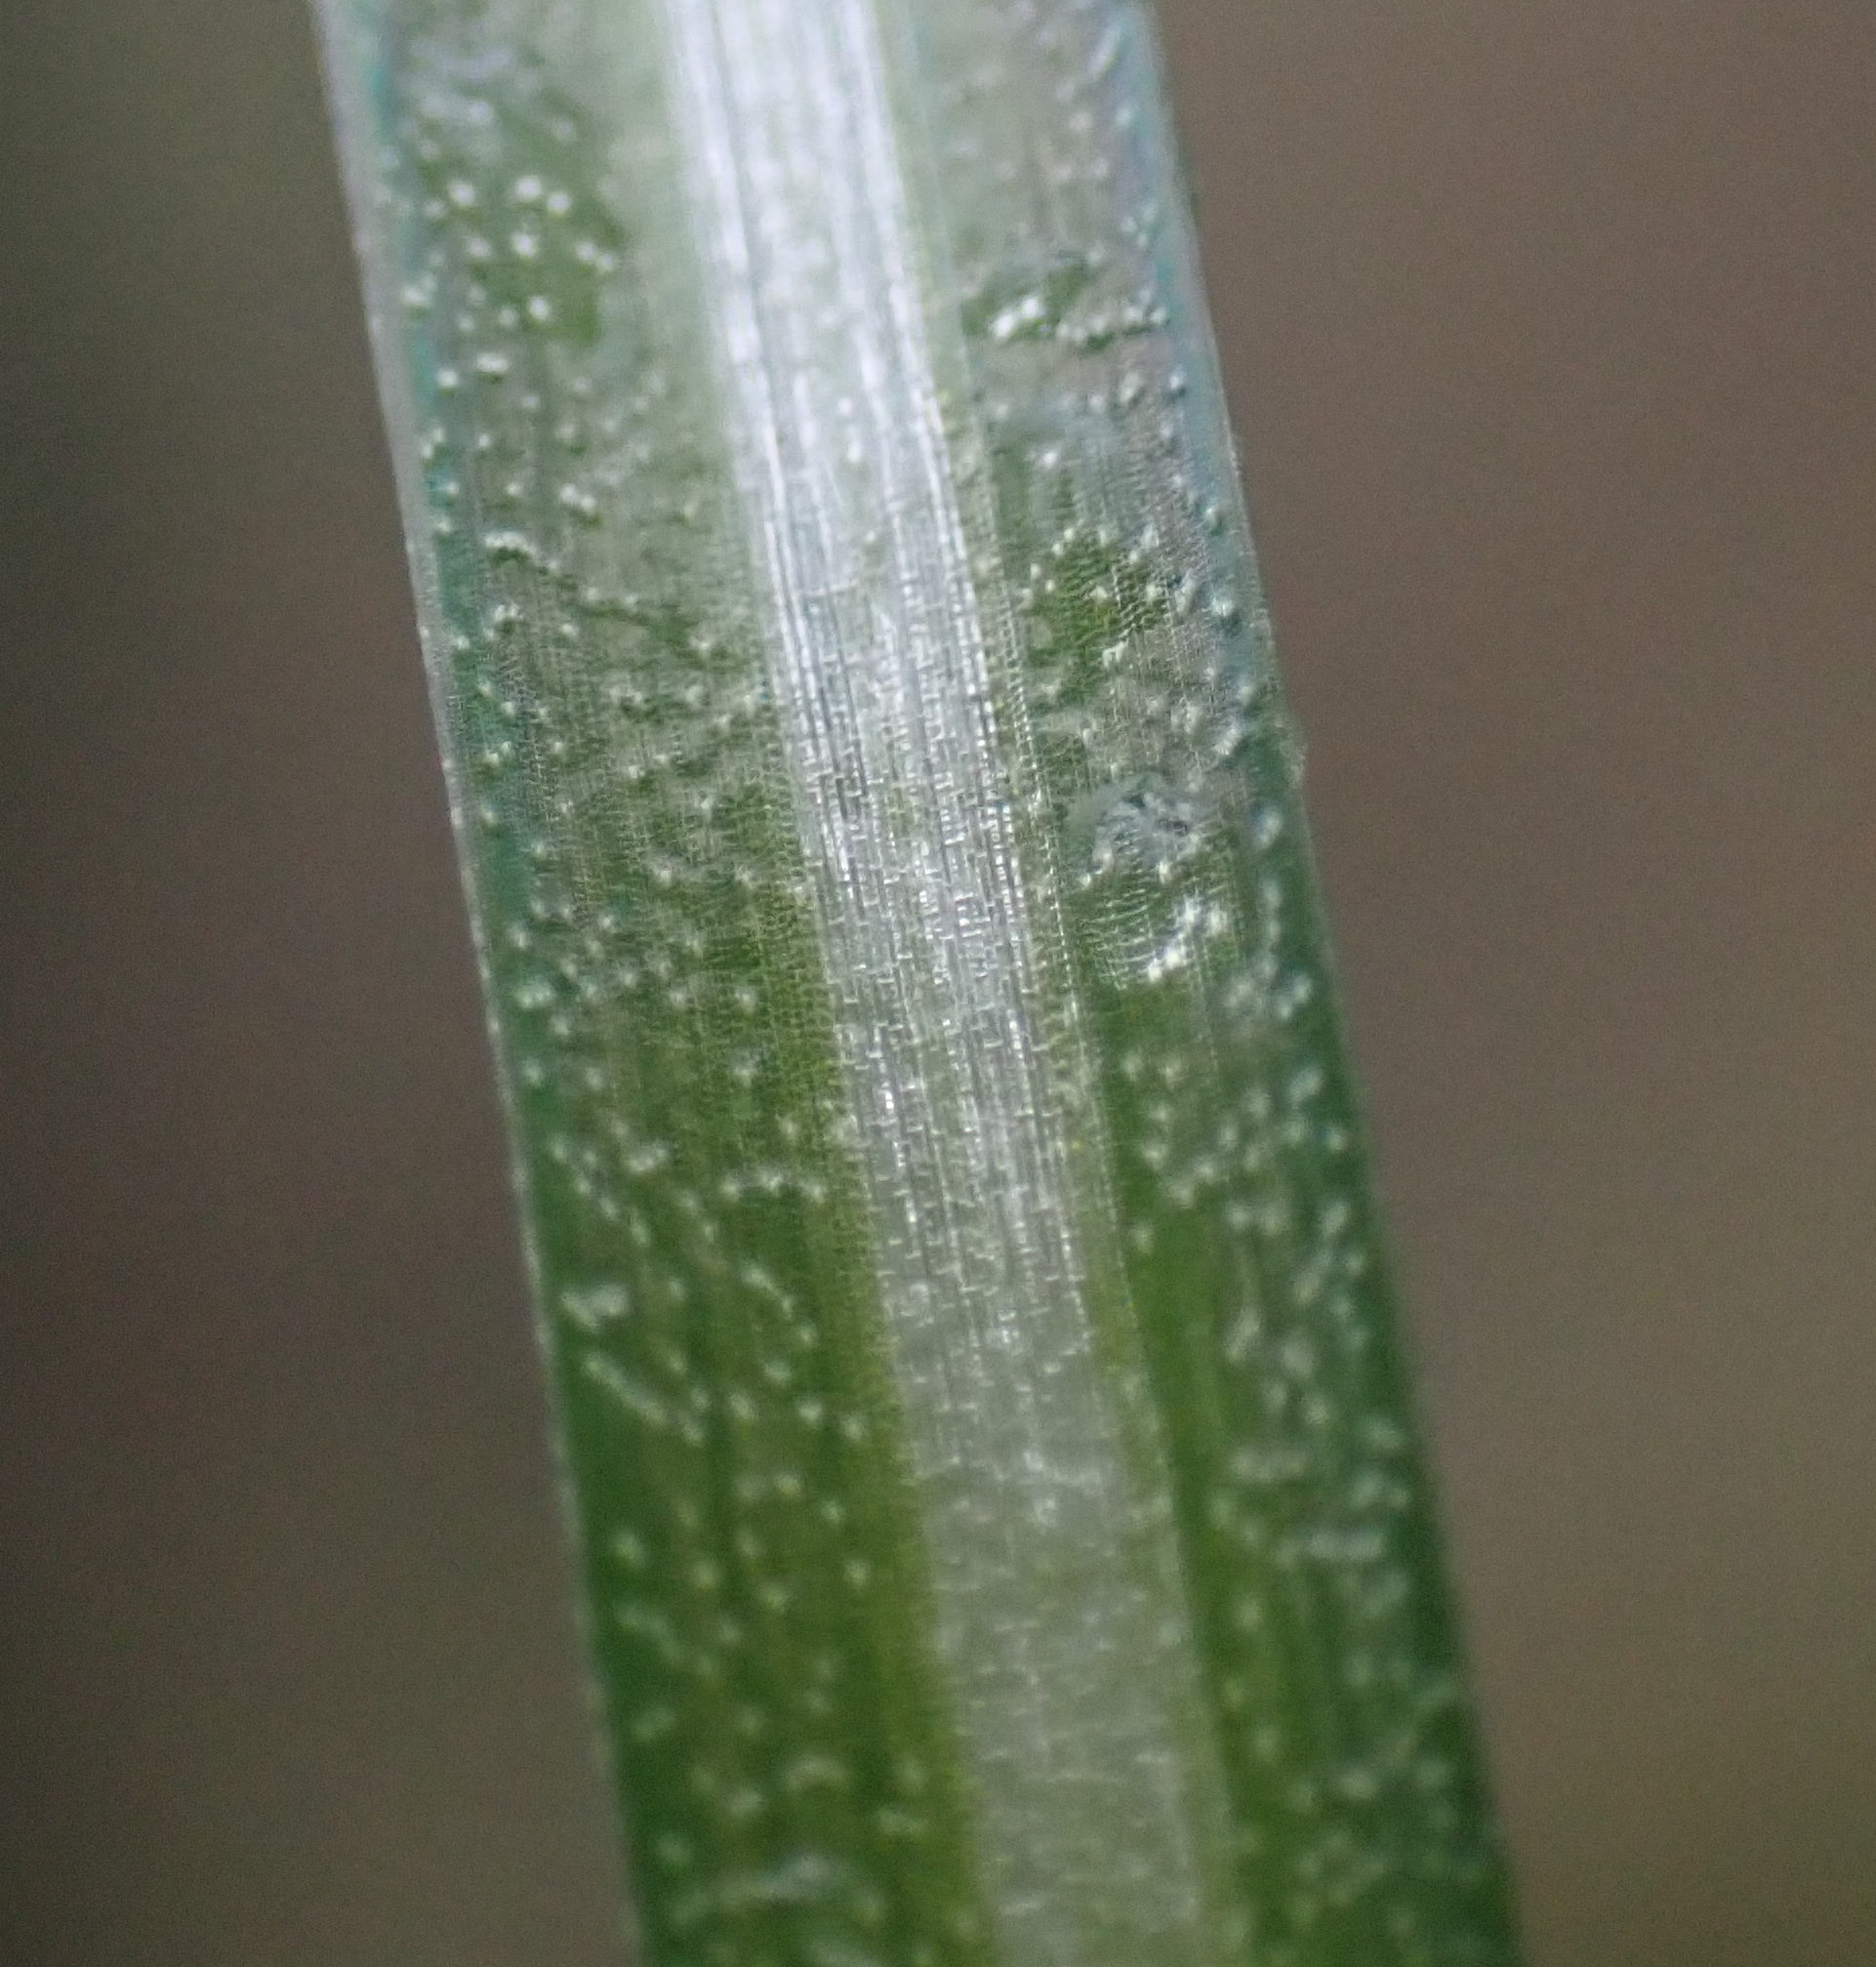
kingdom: Plantae
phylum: Tracheophyta
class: Liliopsida
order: Asparagales
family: Asparagaceae
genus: Ornithogalum
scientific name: Ornithogalum umbellatum
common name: Garden star-of-bethlehem
